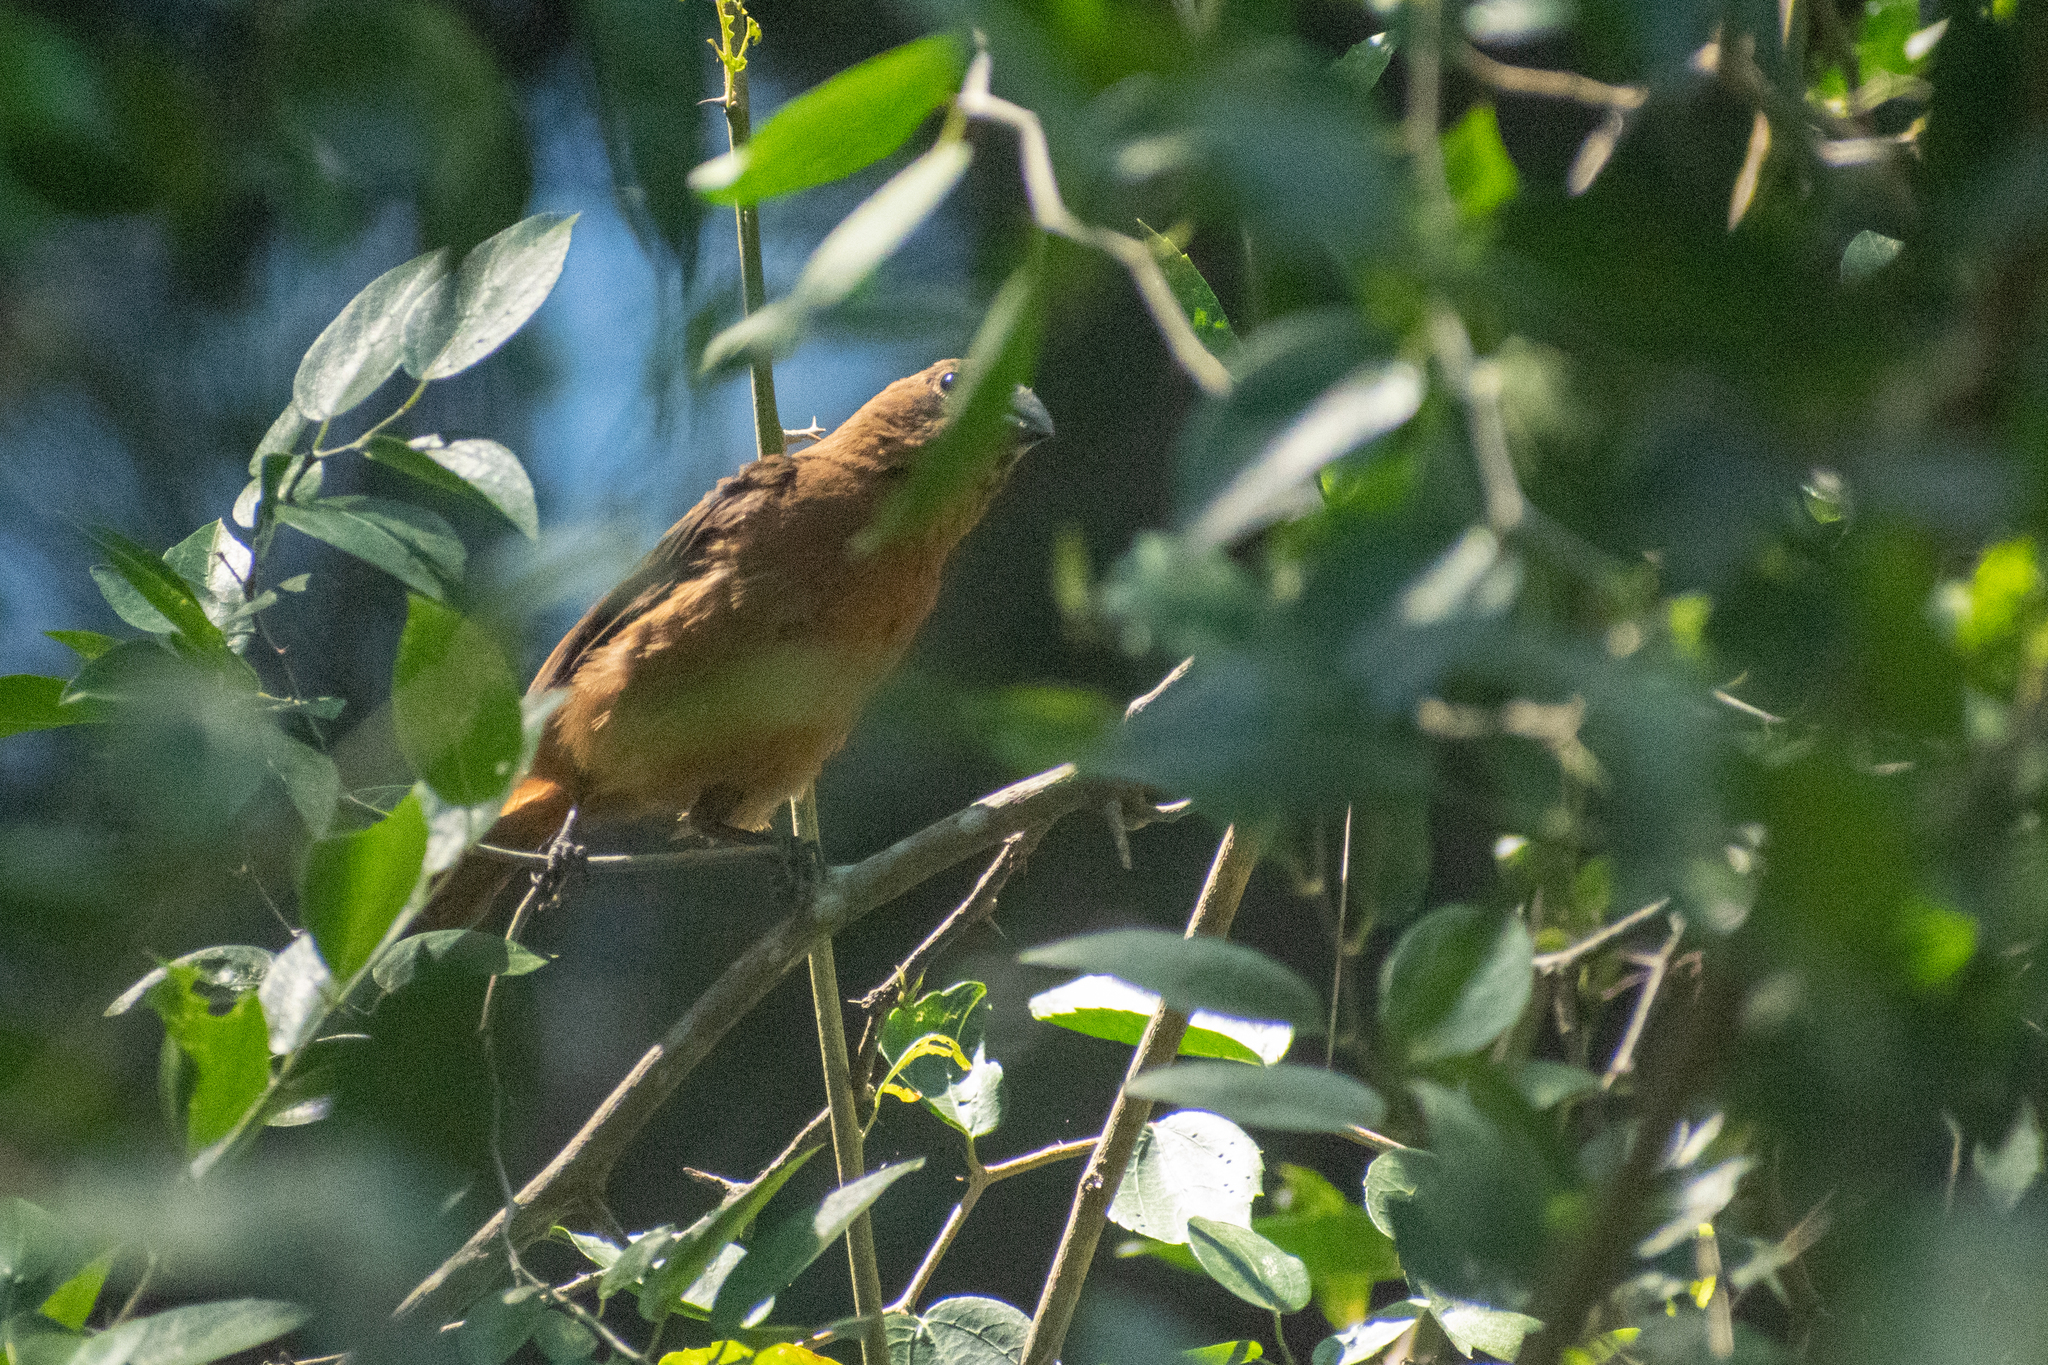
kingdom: Animalia
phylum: Chordata
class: Aves
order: Passeriformes
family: Cardinalidae
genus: Cyanoloxia
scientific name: Cyanoloxia brissonii
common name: Ultramarine grosbeak
